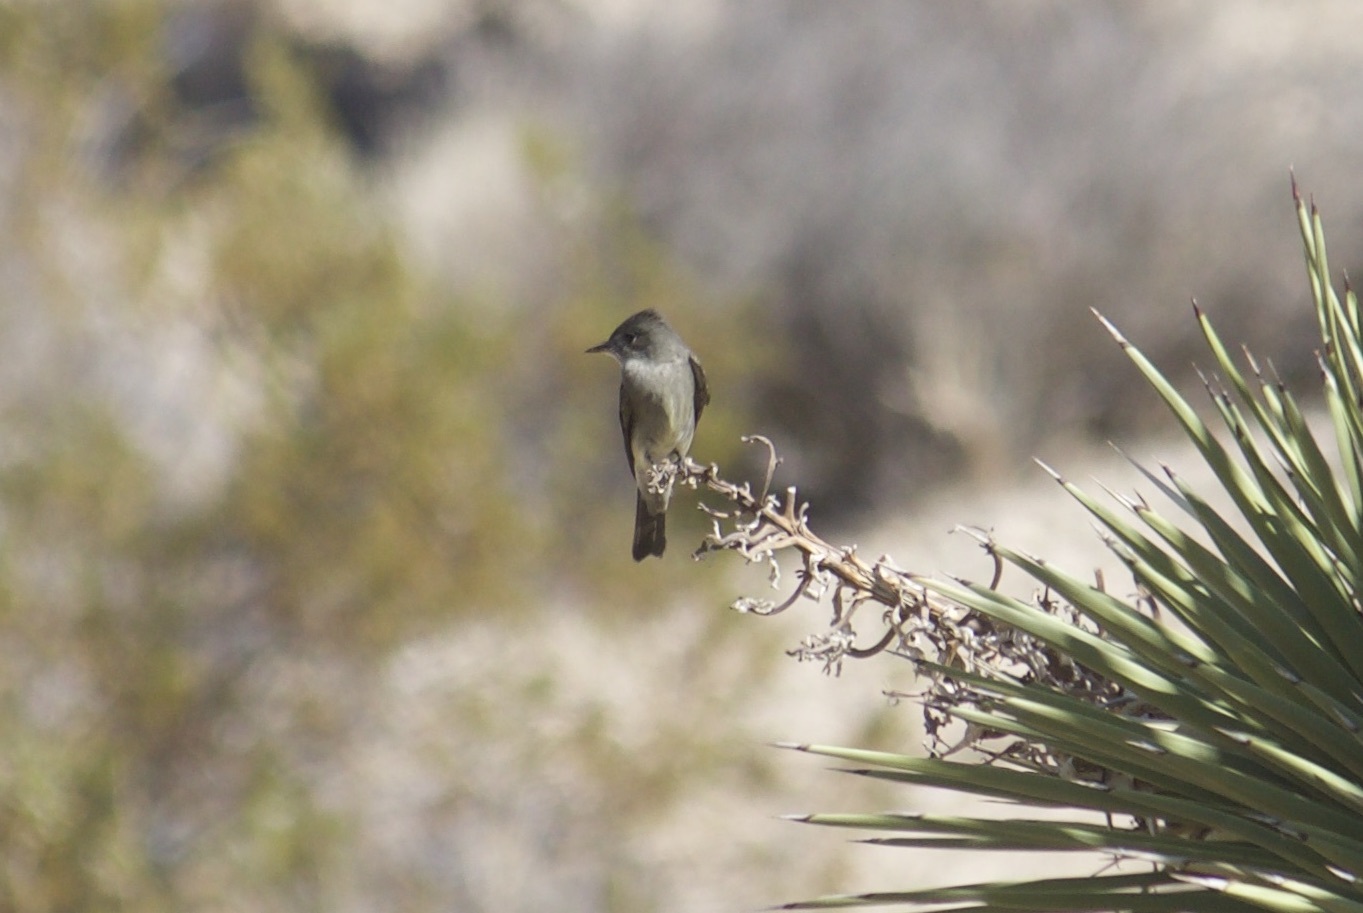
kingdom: Animalia
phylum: Chordata
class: Aves
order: Passeriformes
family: Tyrannidae
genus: Contopus
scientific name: Contopus sordidulus
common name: Western wood-pewee
